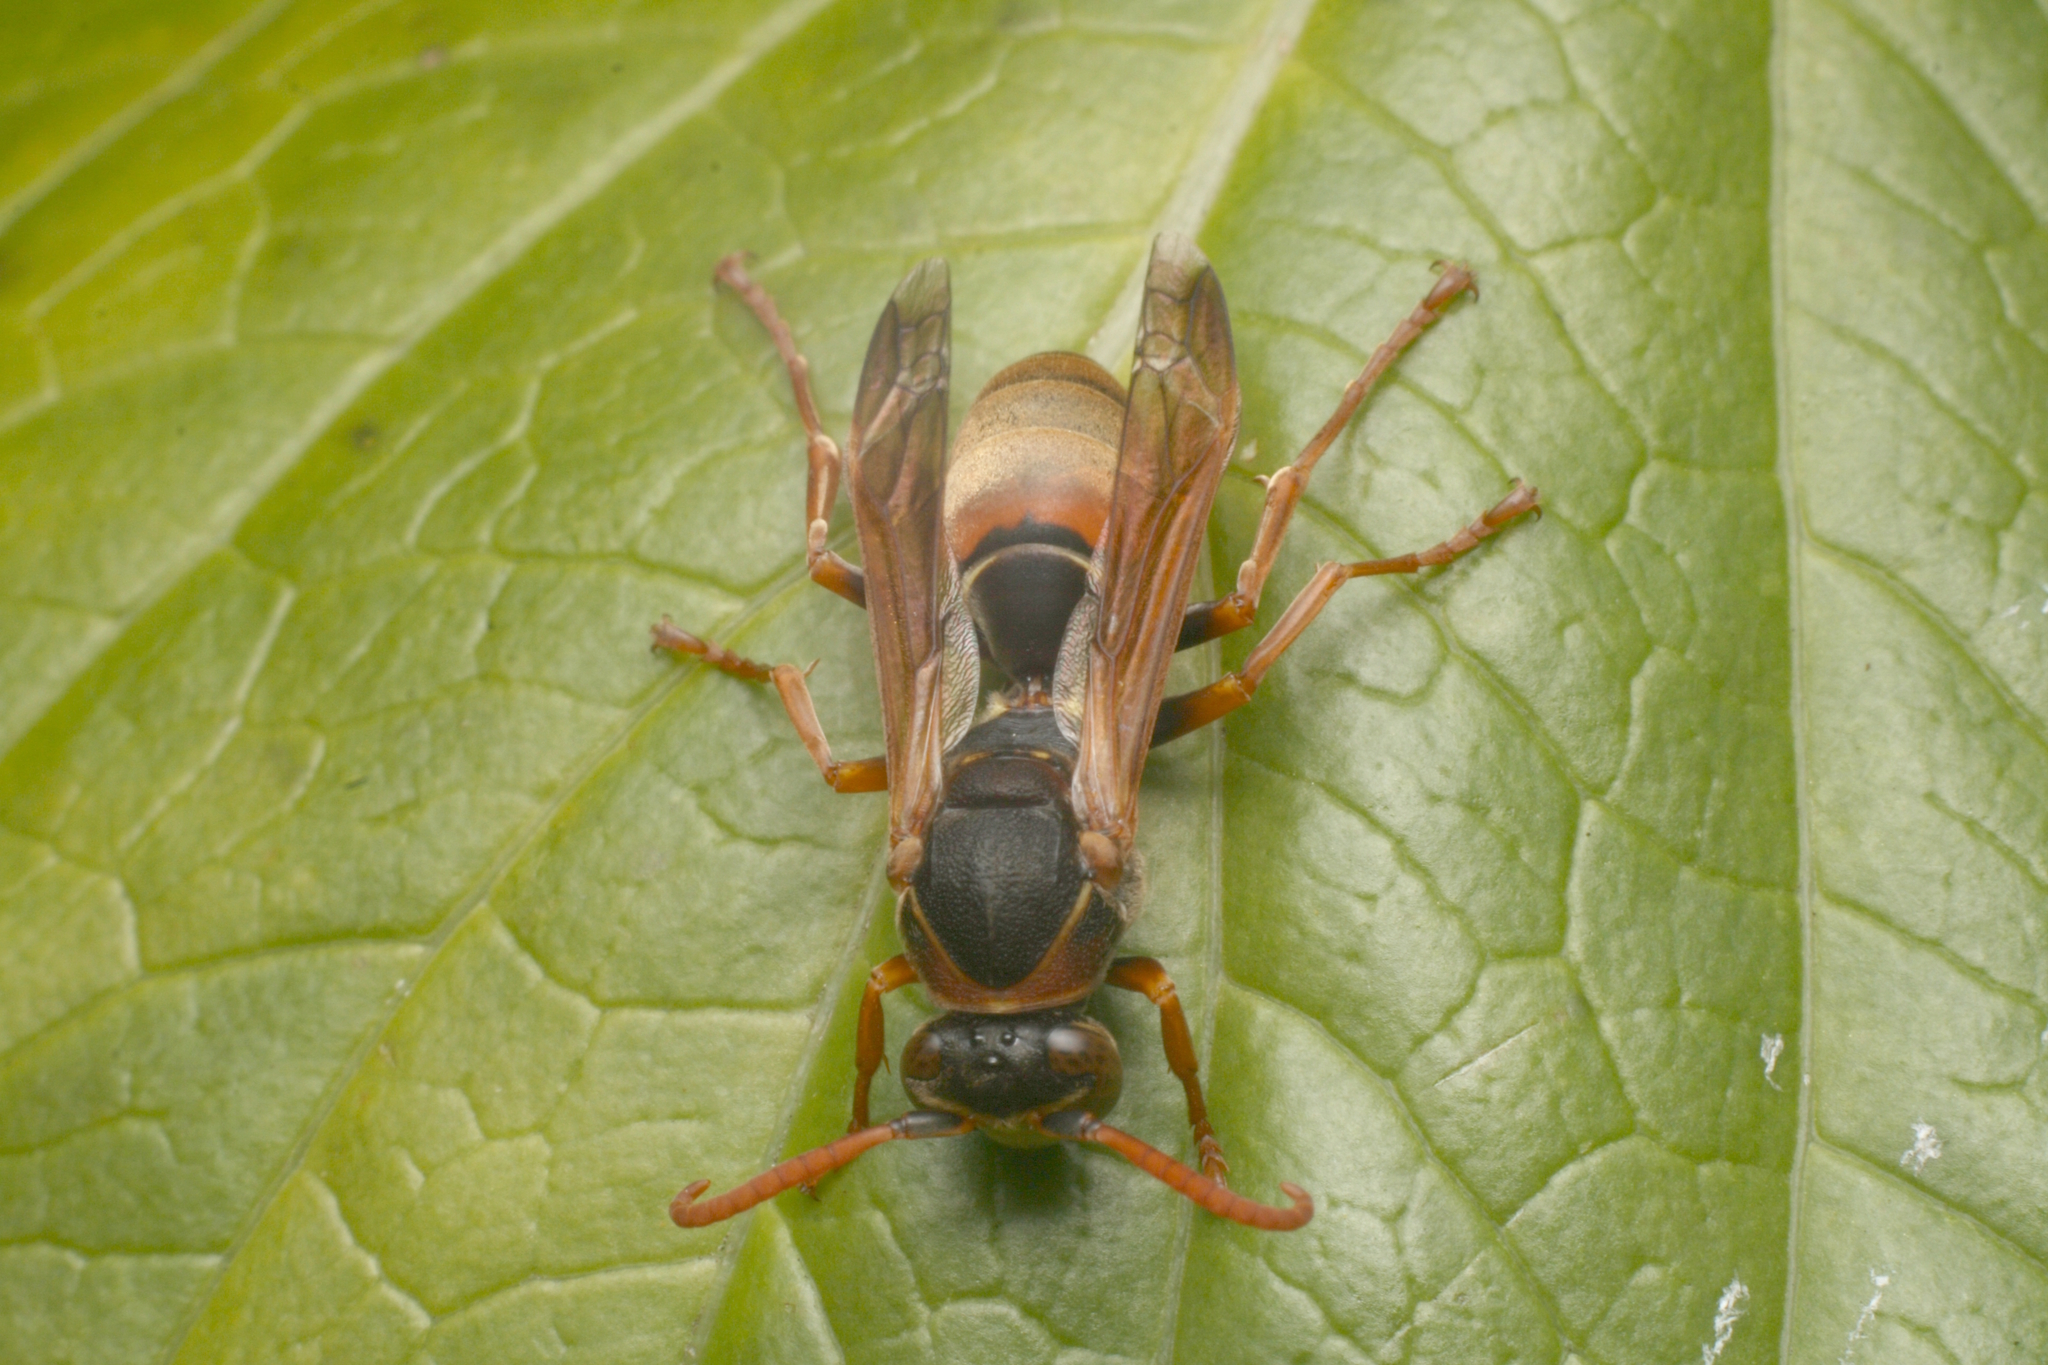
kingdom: Animalia
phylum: Arthropoda
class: Insecta
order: Hymenoptera
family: Eumenidae
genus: Polistes
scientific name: Polistes humilis
